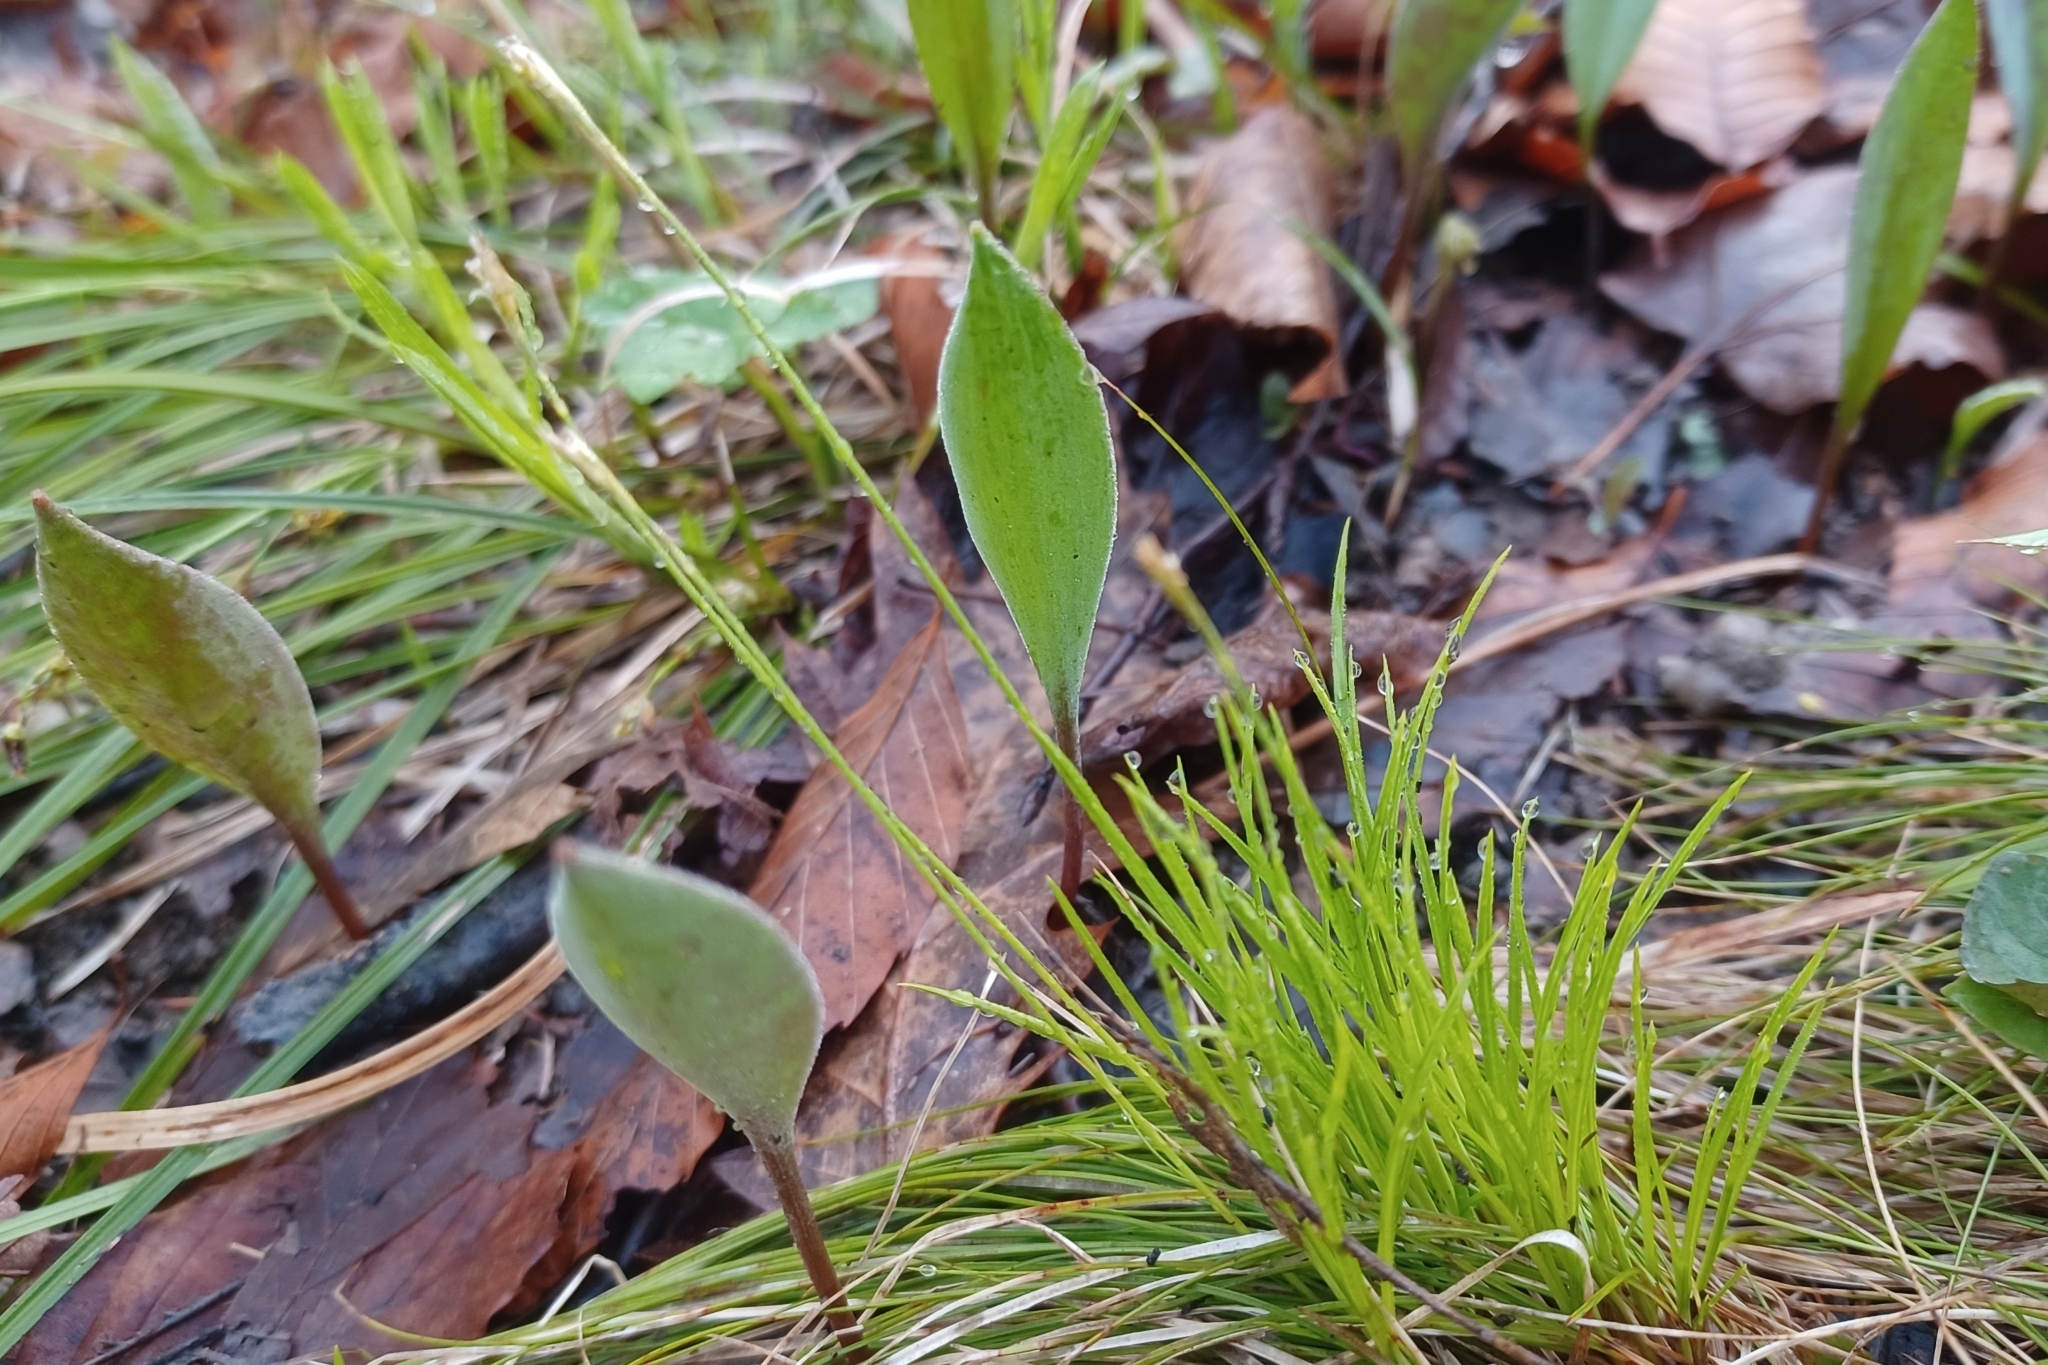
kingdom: Plantae
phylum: Tracheophyta
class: Liliopsida
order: Poales
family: Cyperaceae
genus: Carex
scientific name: Carex eburnea
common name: Bristle-leaved sedge
